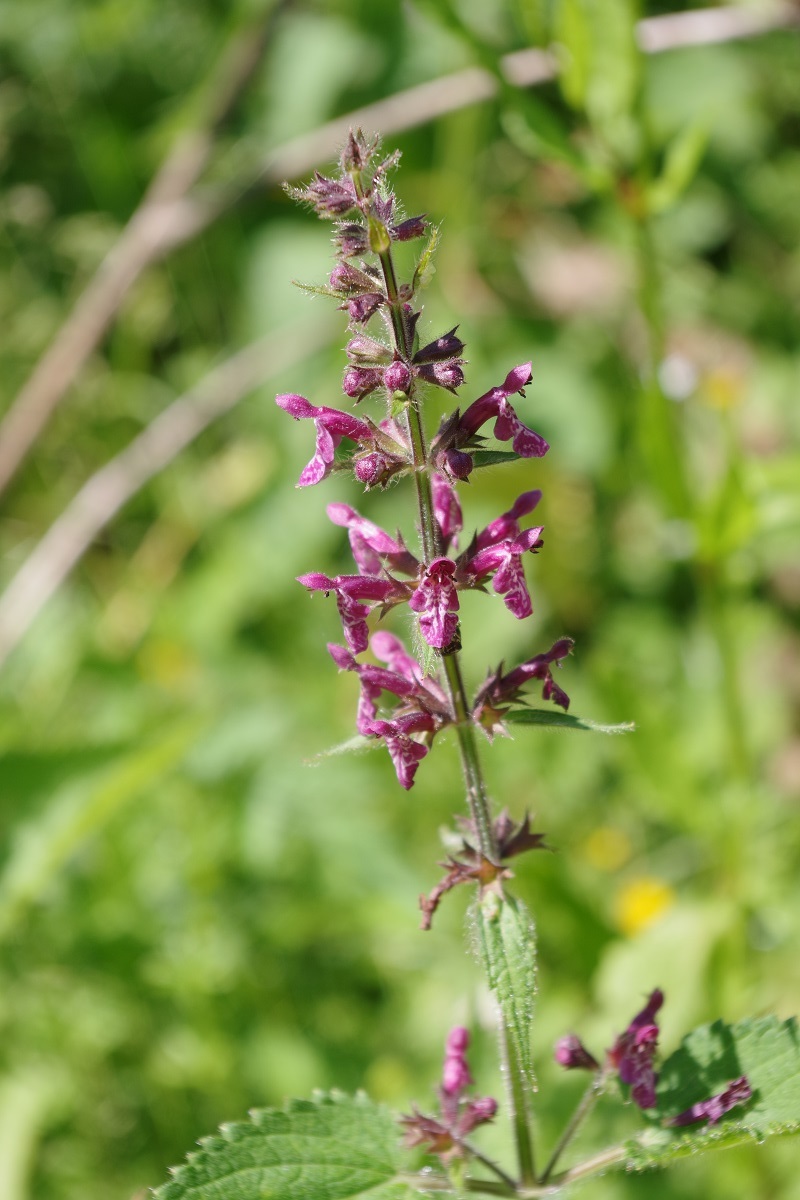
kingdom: Plantae
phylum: Tracheophyta
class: Magnoliopsida
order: Lamiales
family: Lamiaceae
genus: Stachys
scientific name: Stachys sylvatica
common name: Hedge woundwort
